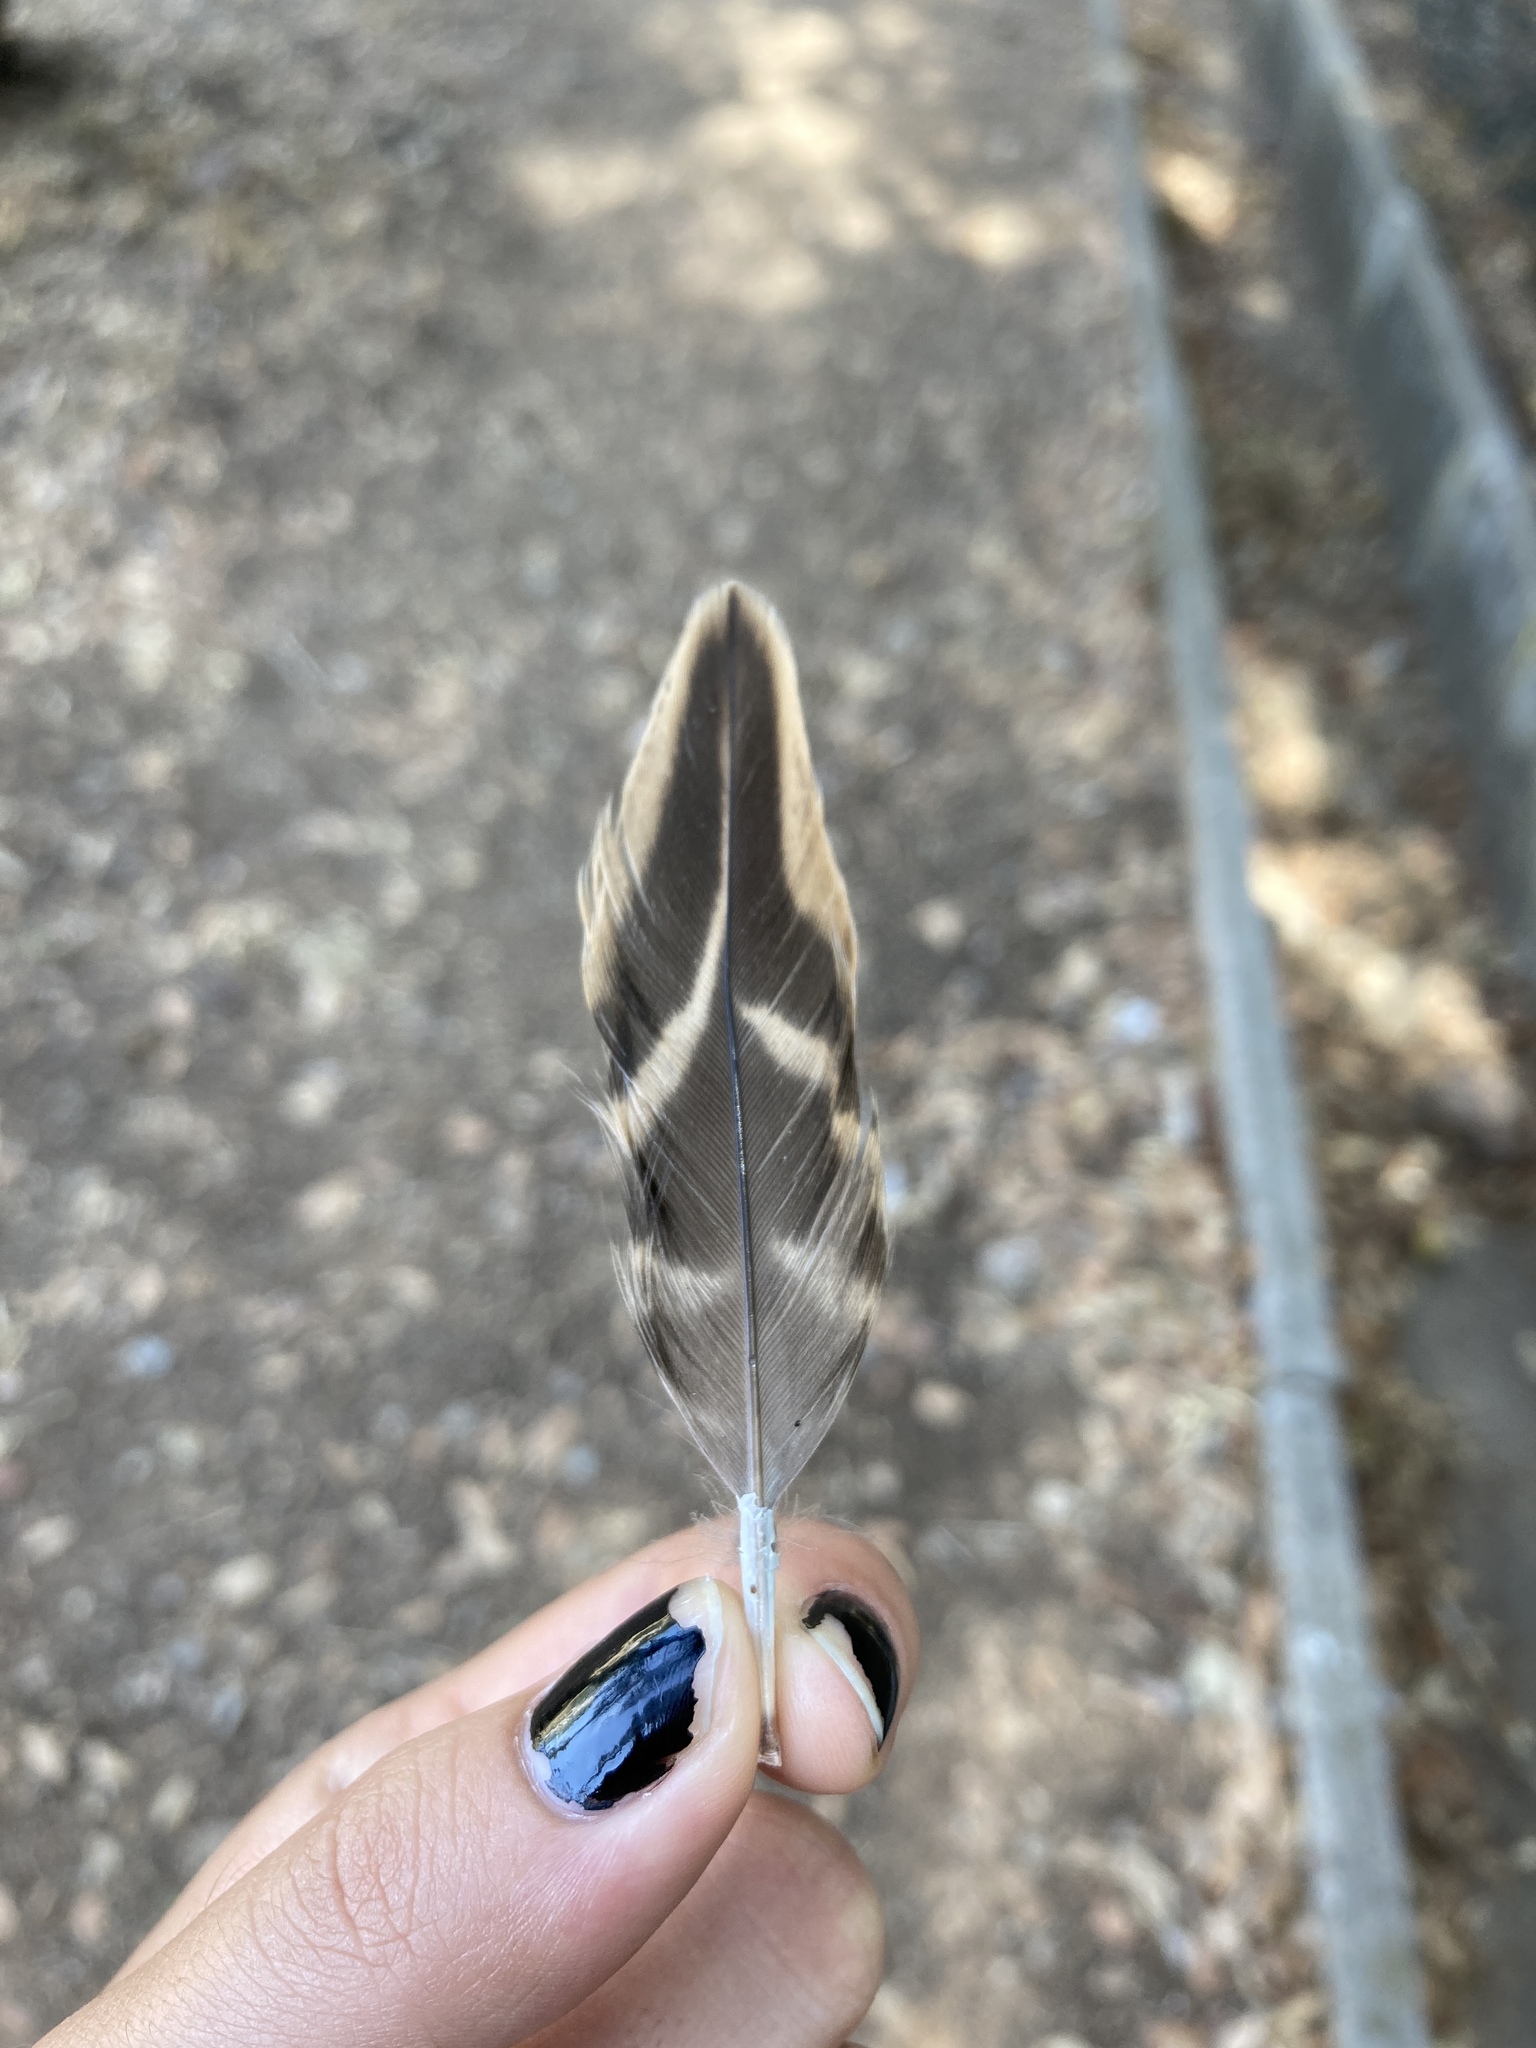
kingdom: Animalia
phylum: Chordata
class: Aves
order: Anseriformes
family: Anatidae
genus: Anas
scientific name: Anas platyrhynchos
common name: Mallard
